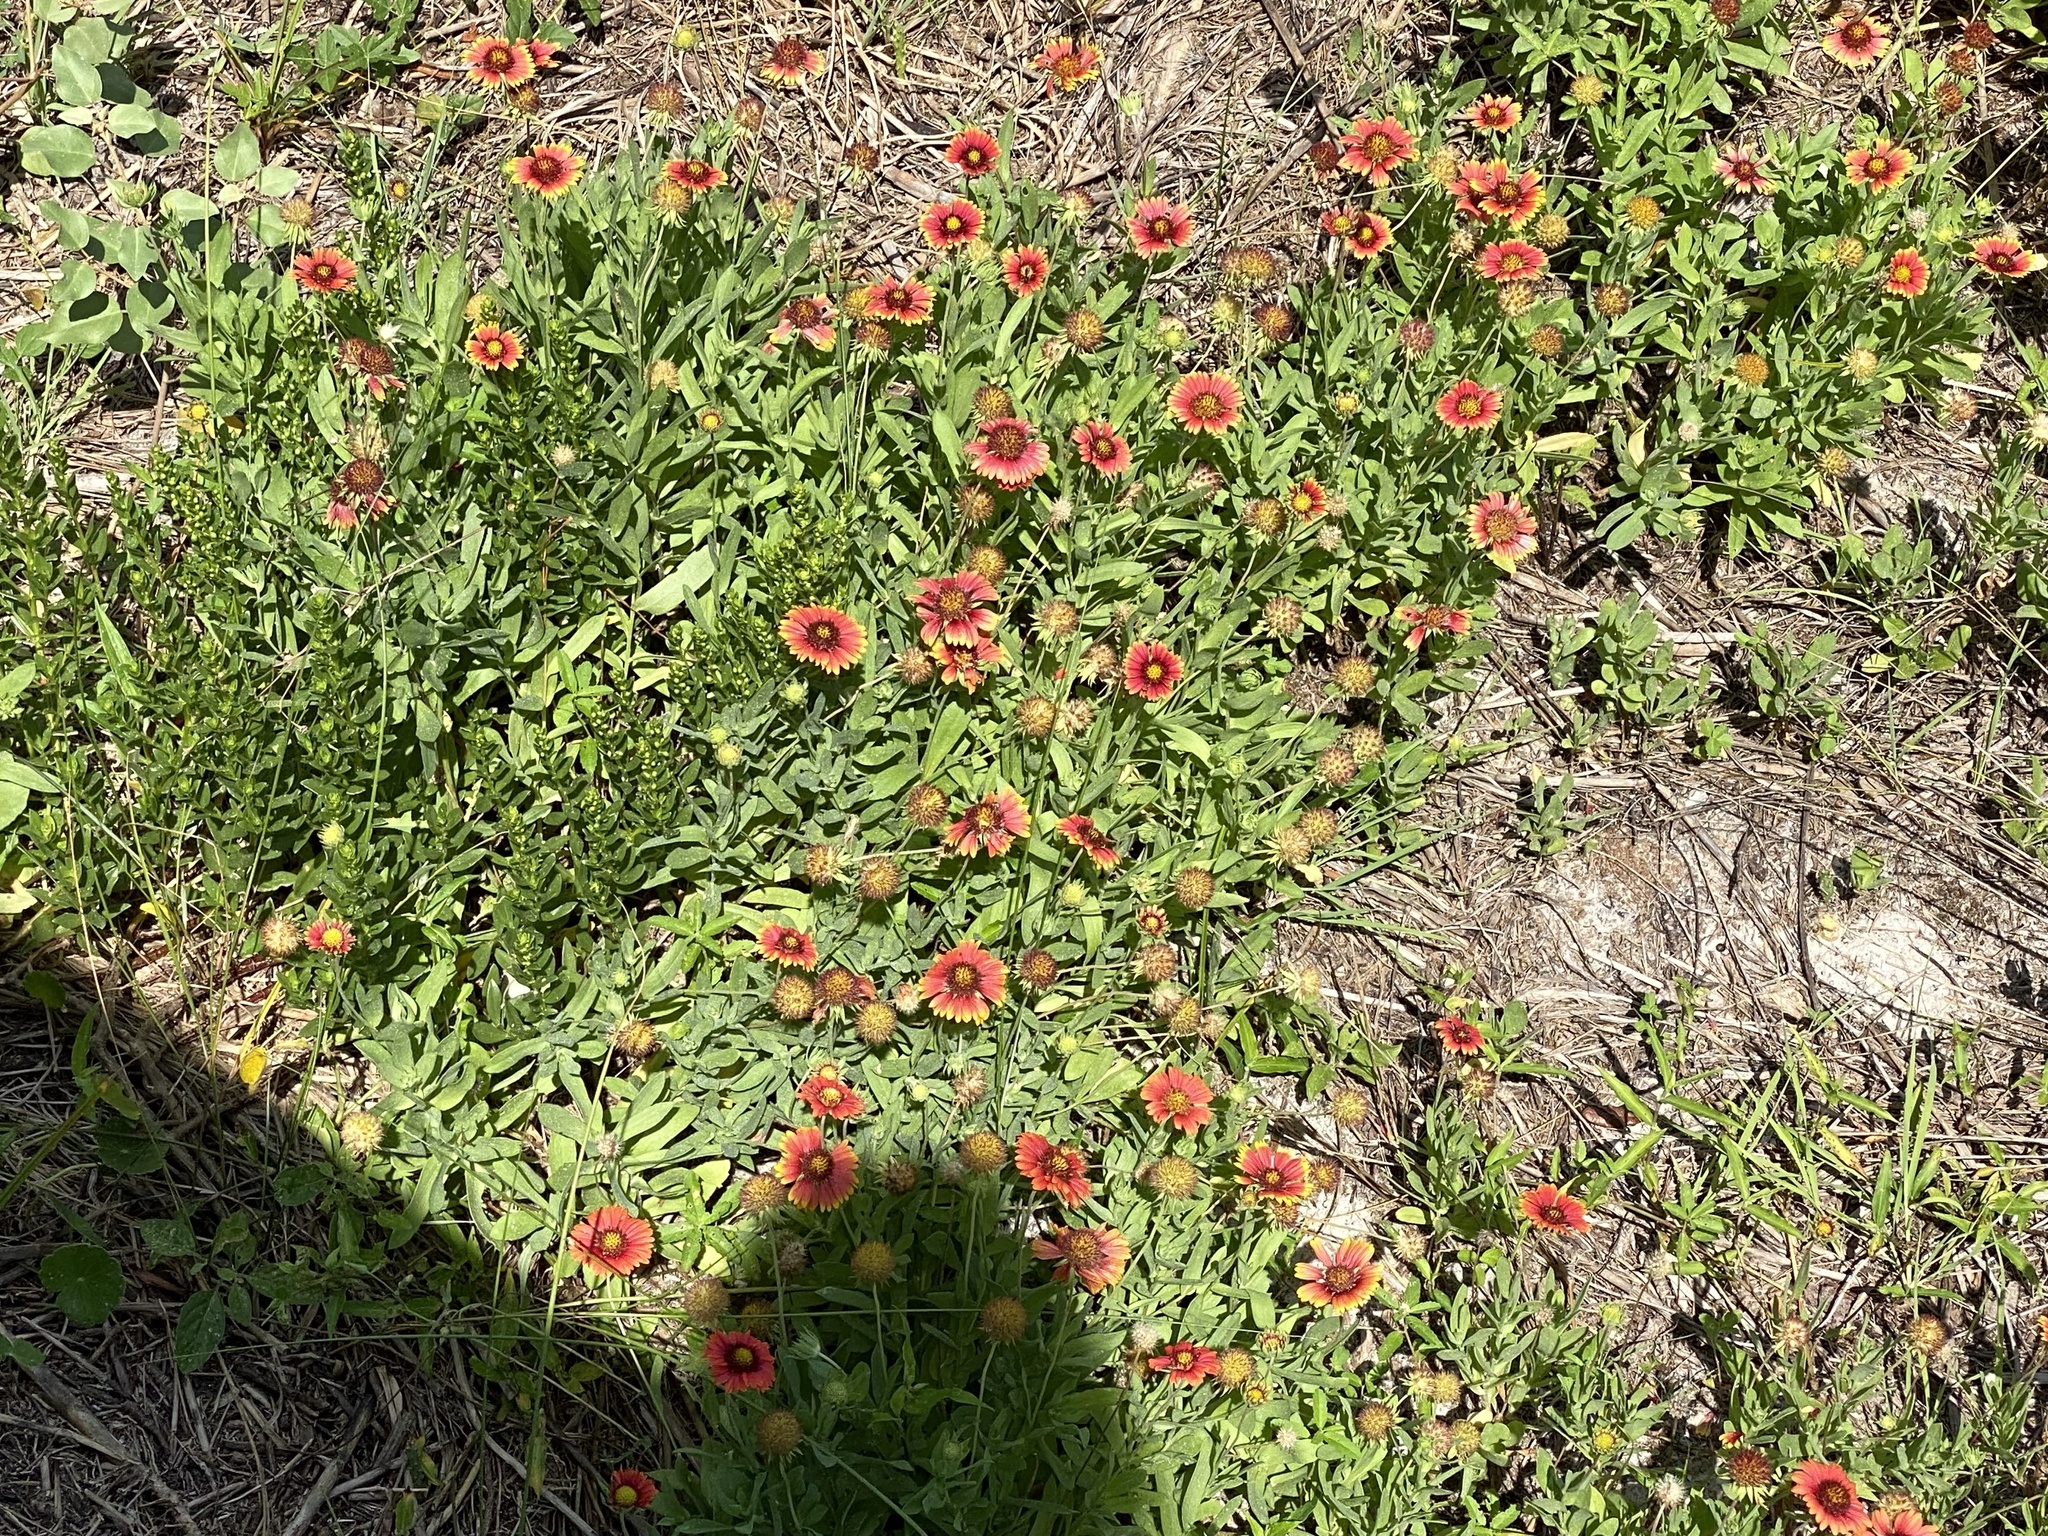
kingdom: Plantae
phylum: Tracheophyta
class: Magnoliopsida
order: Asterales
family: Asteraceae
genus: Gaillardia
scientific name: Gaillardia pulchella
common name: Firewheel
